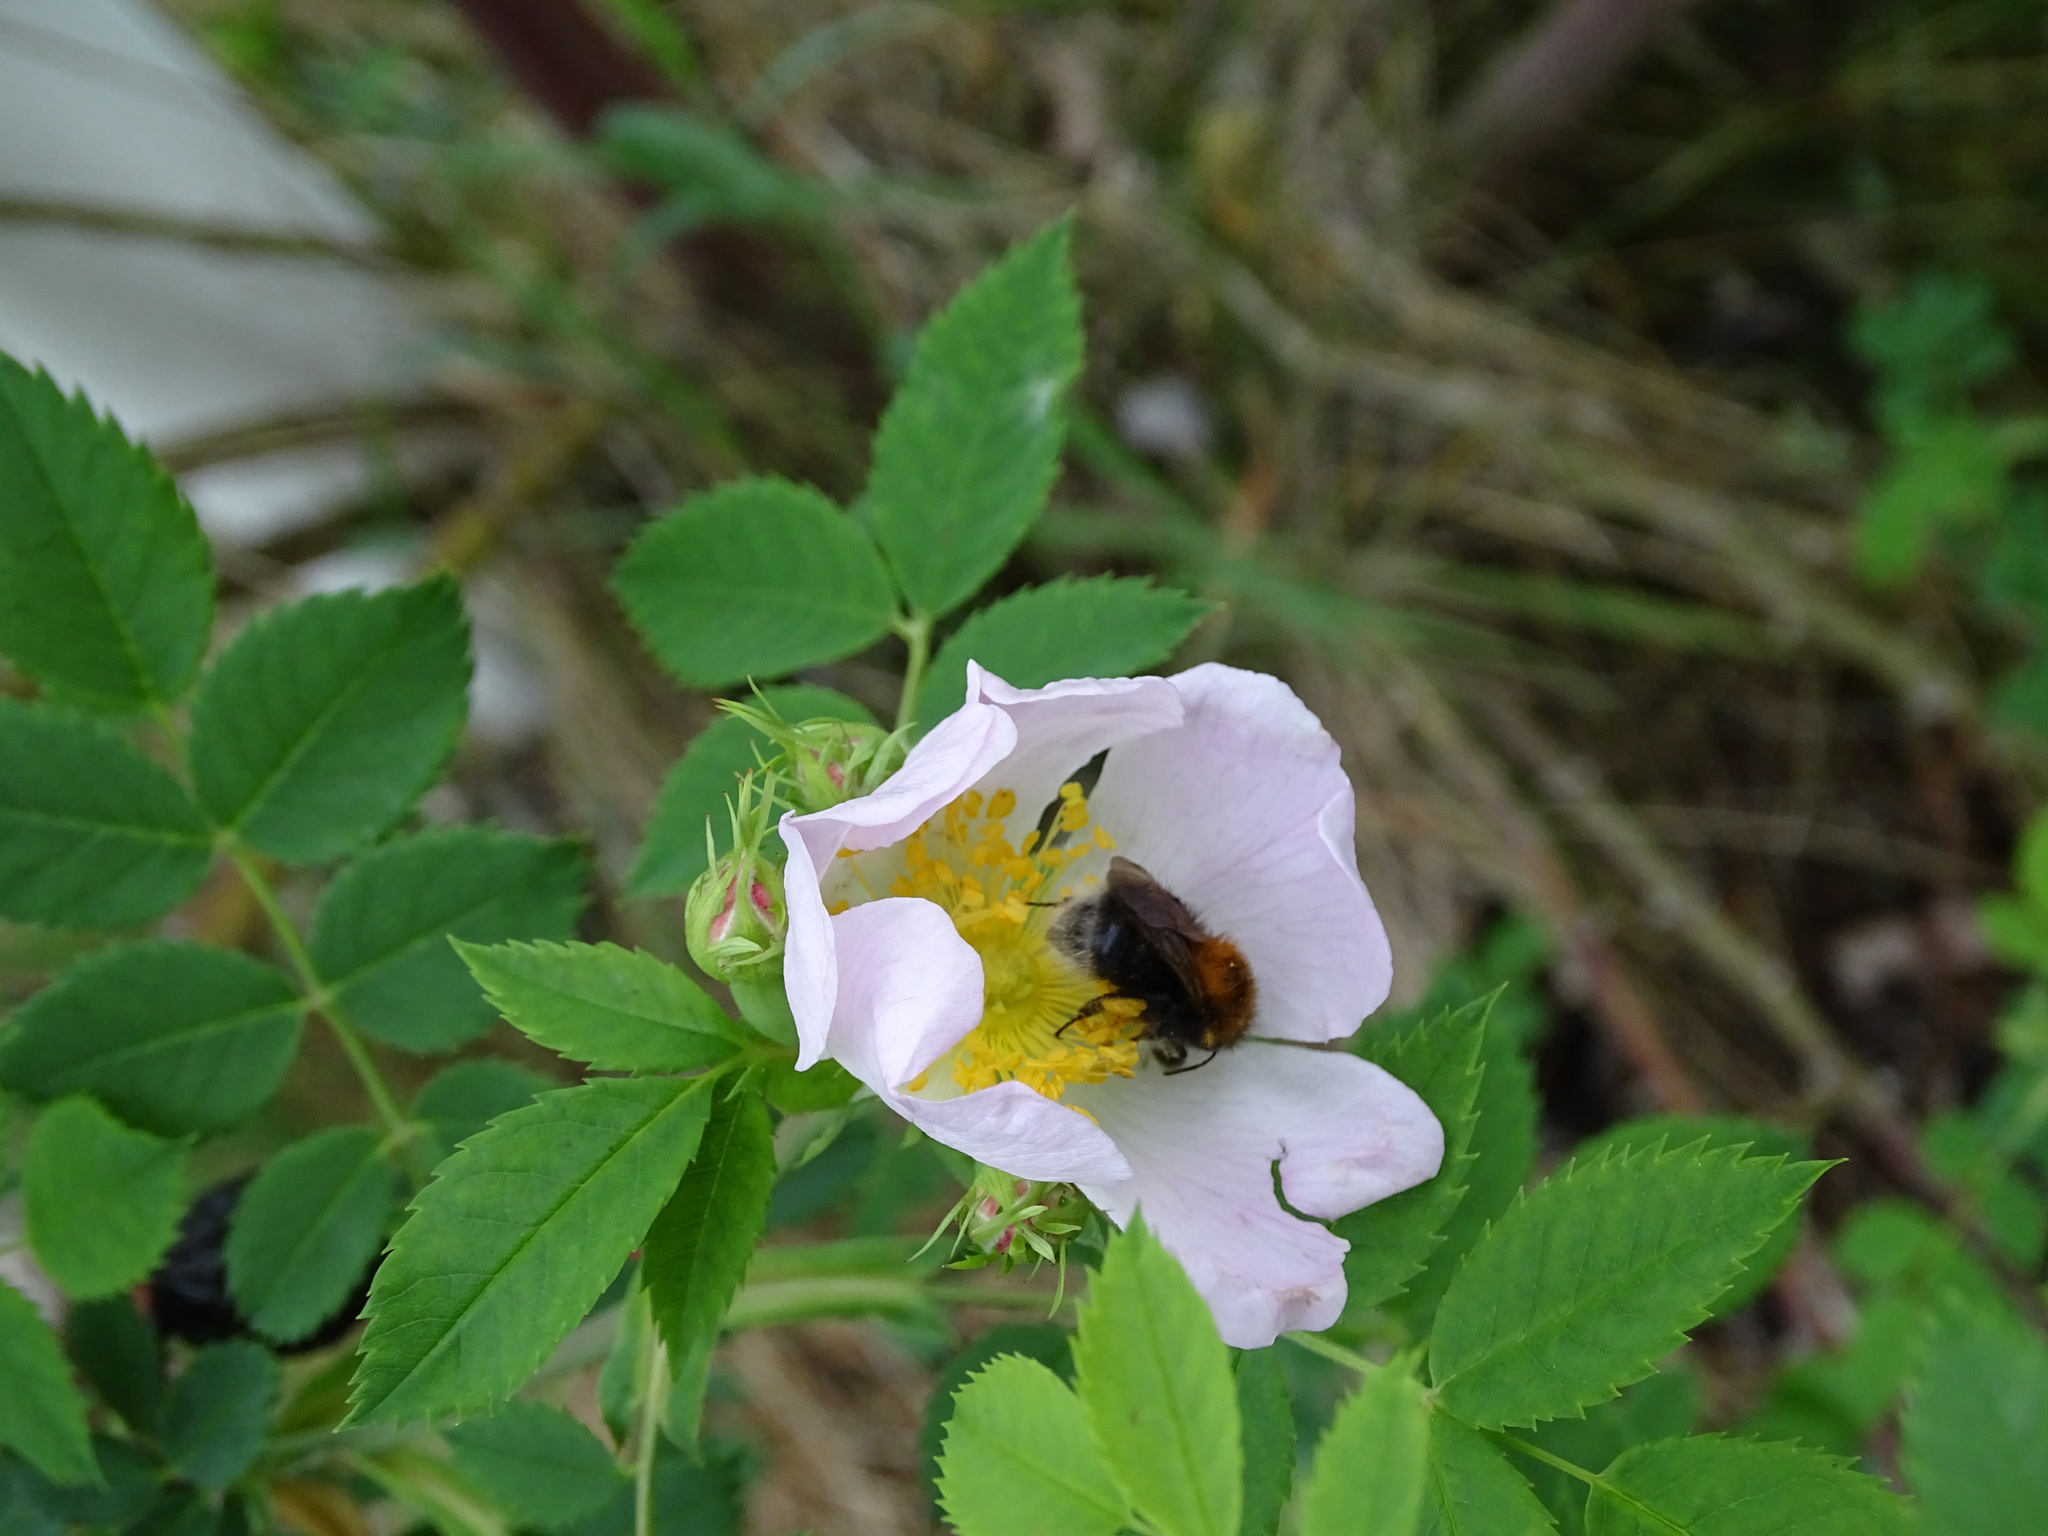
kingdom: Animalia
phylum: Arthropoda
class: Insecta
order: Hymenoptera
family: Apidae
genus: Bombus
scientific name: Bombus hypnorum
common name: New garden bumblebee
